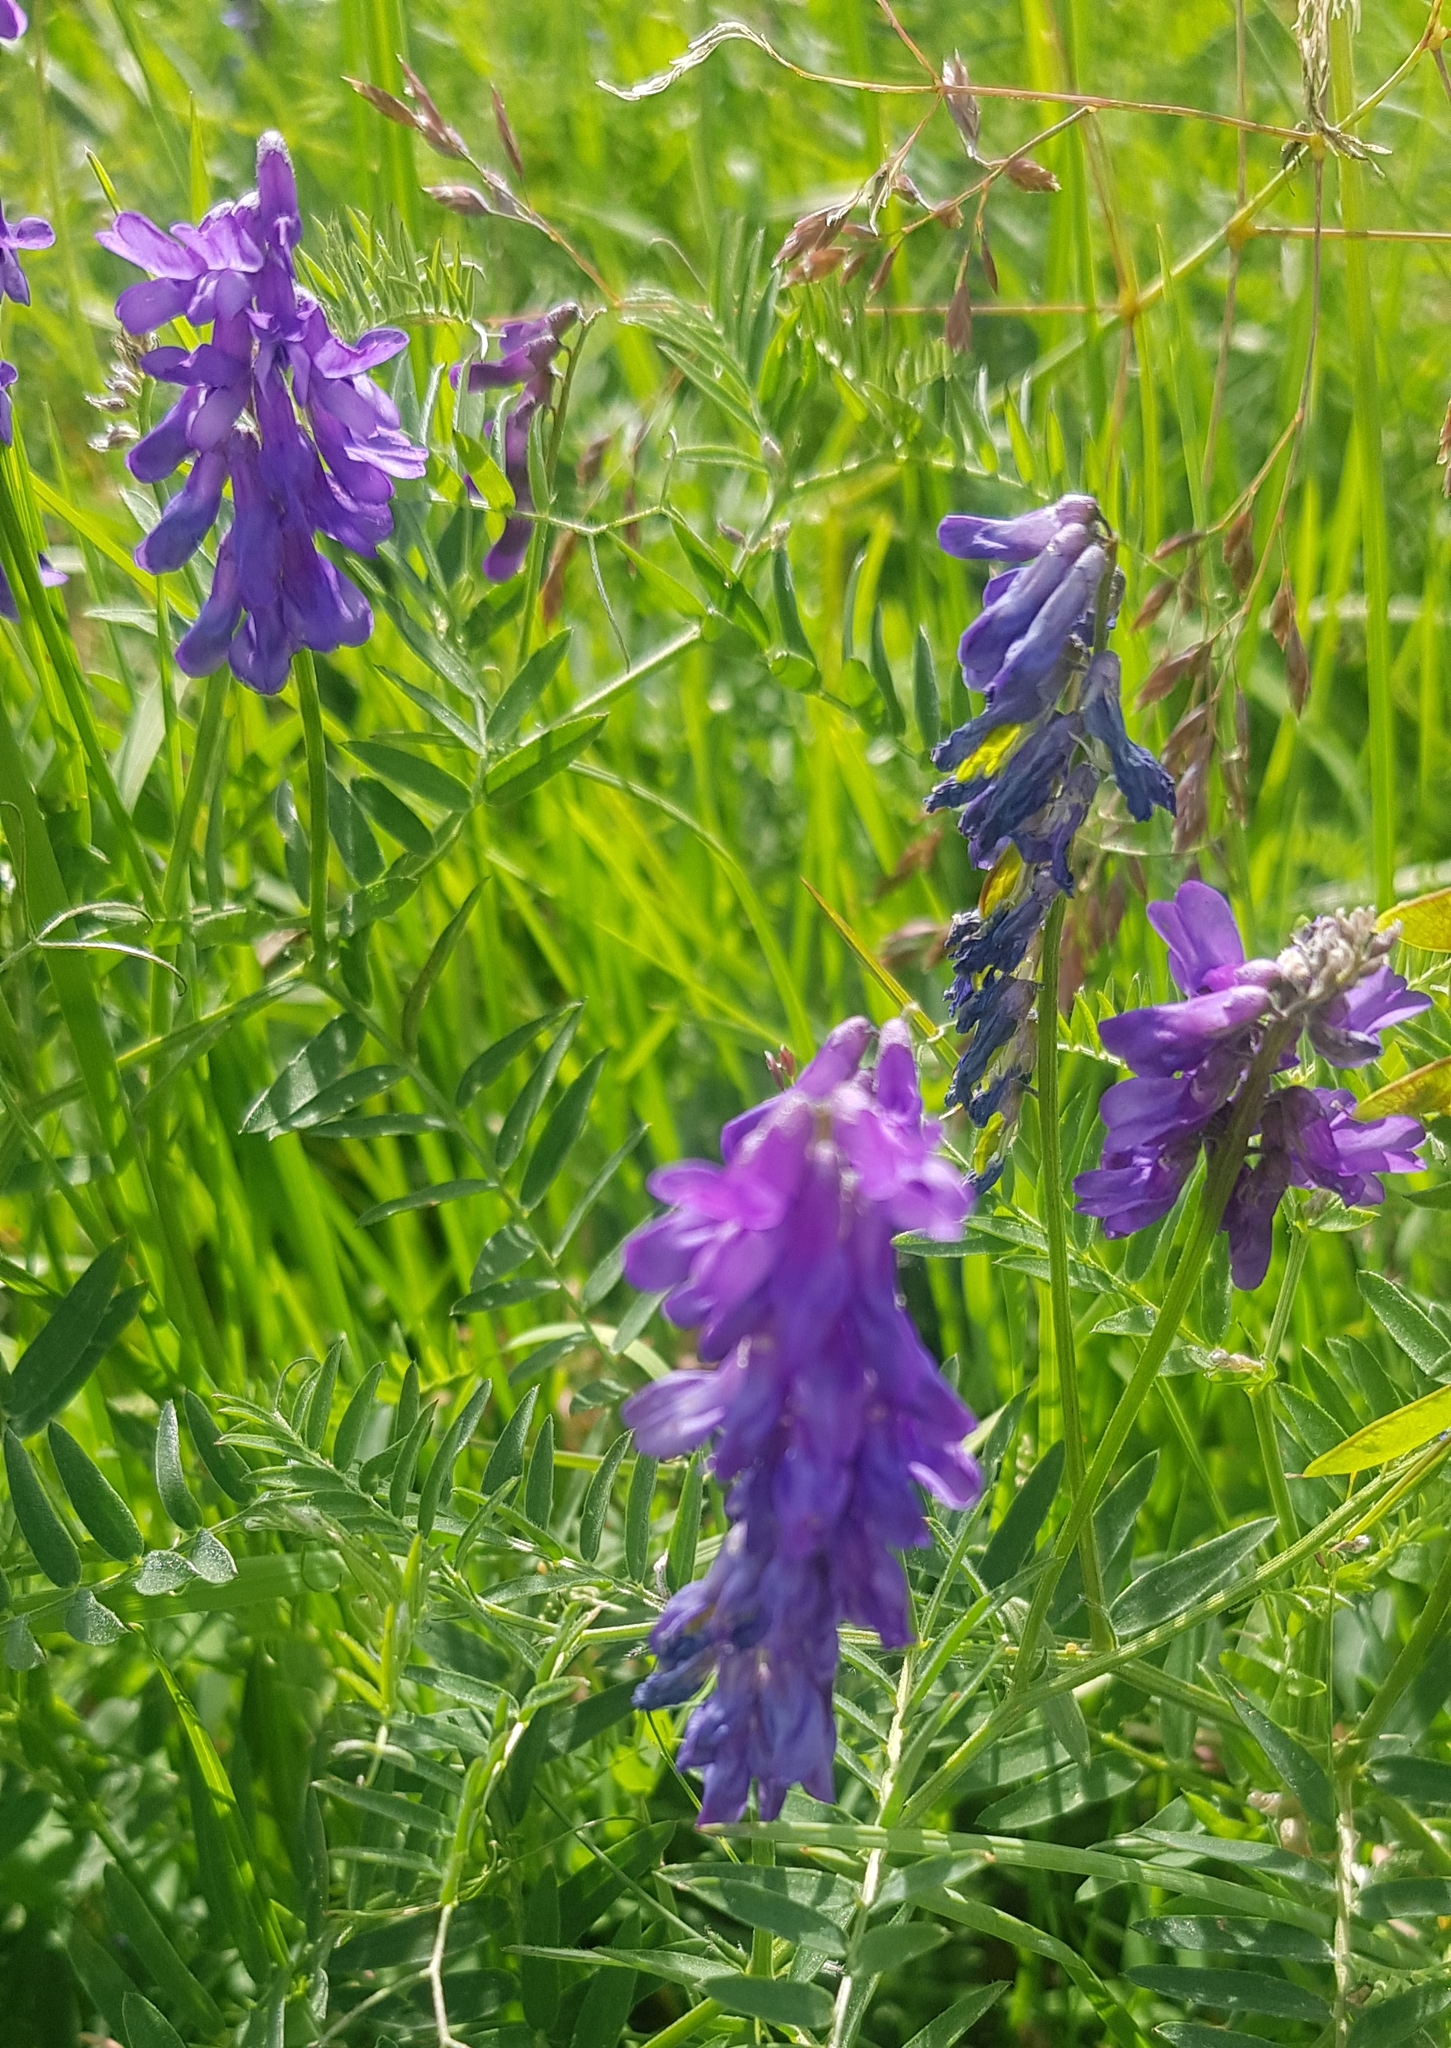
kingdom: Plantae
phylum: Tracheophyta
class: Magnoliopsida
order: Fabales
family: Fabaceae
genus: Vicia
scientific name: Vicia cracca
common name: Bird vetch
